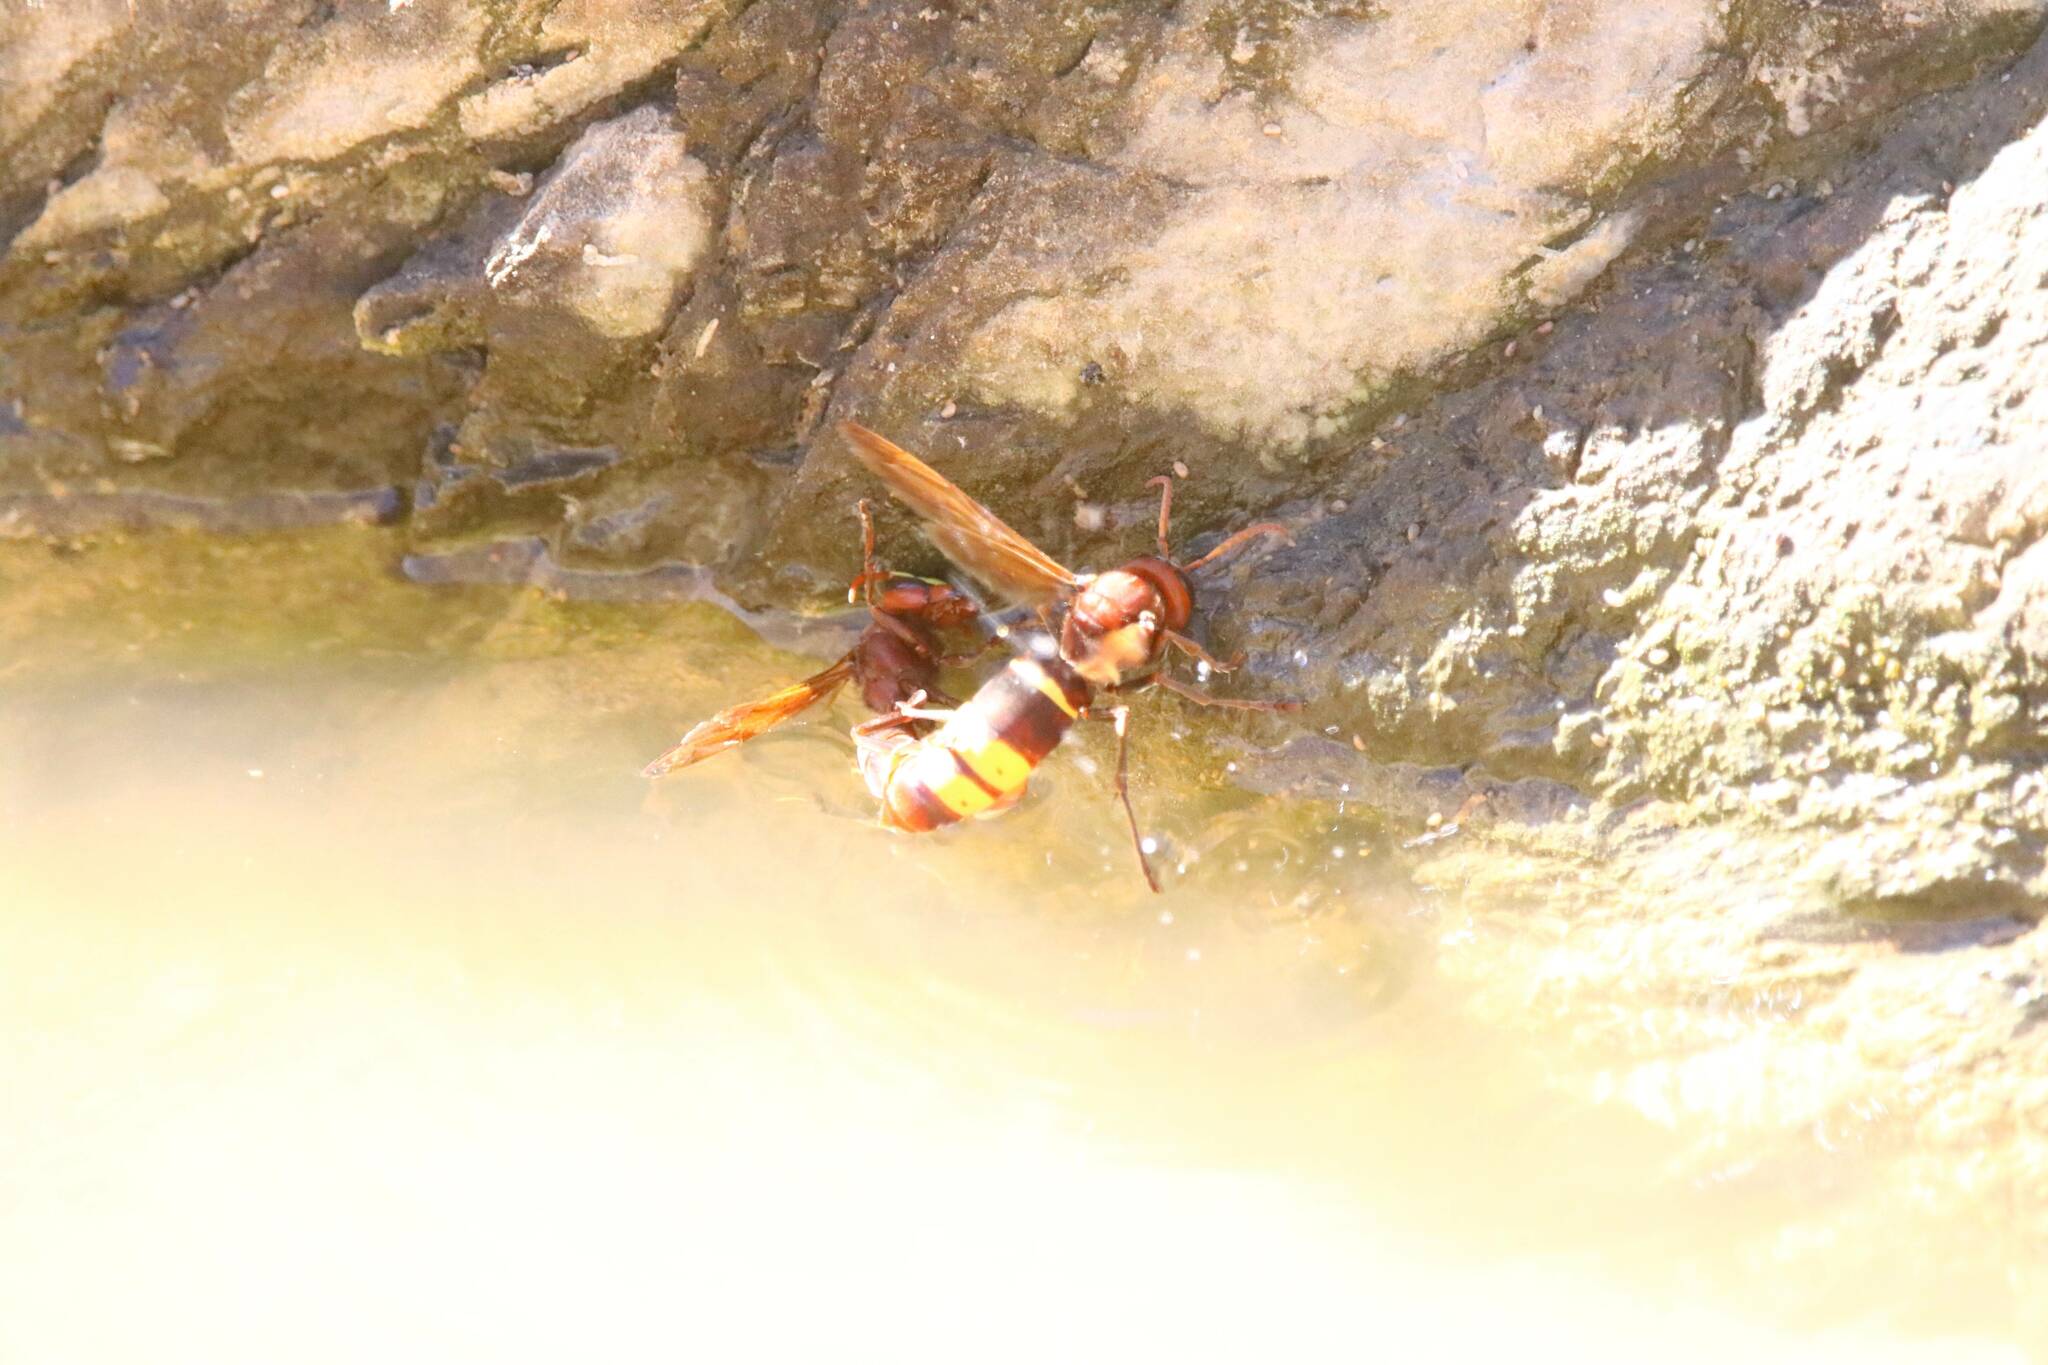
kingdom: Animalia
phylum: Arthropoda
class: Insecta
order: Hymenoptera
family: Vespidae
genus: Vespa
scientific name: Vespa orientalis
